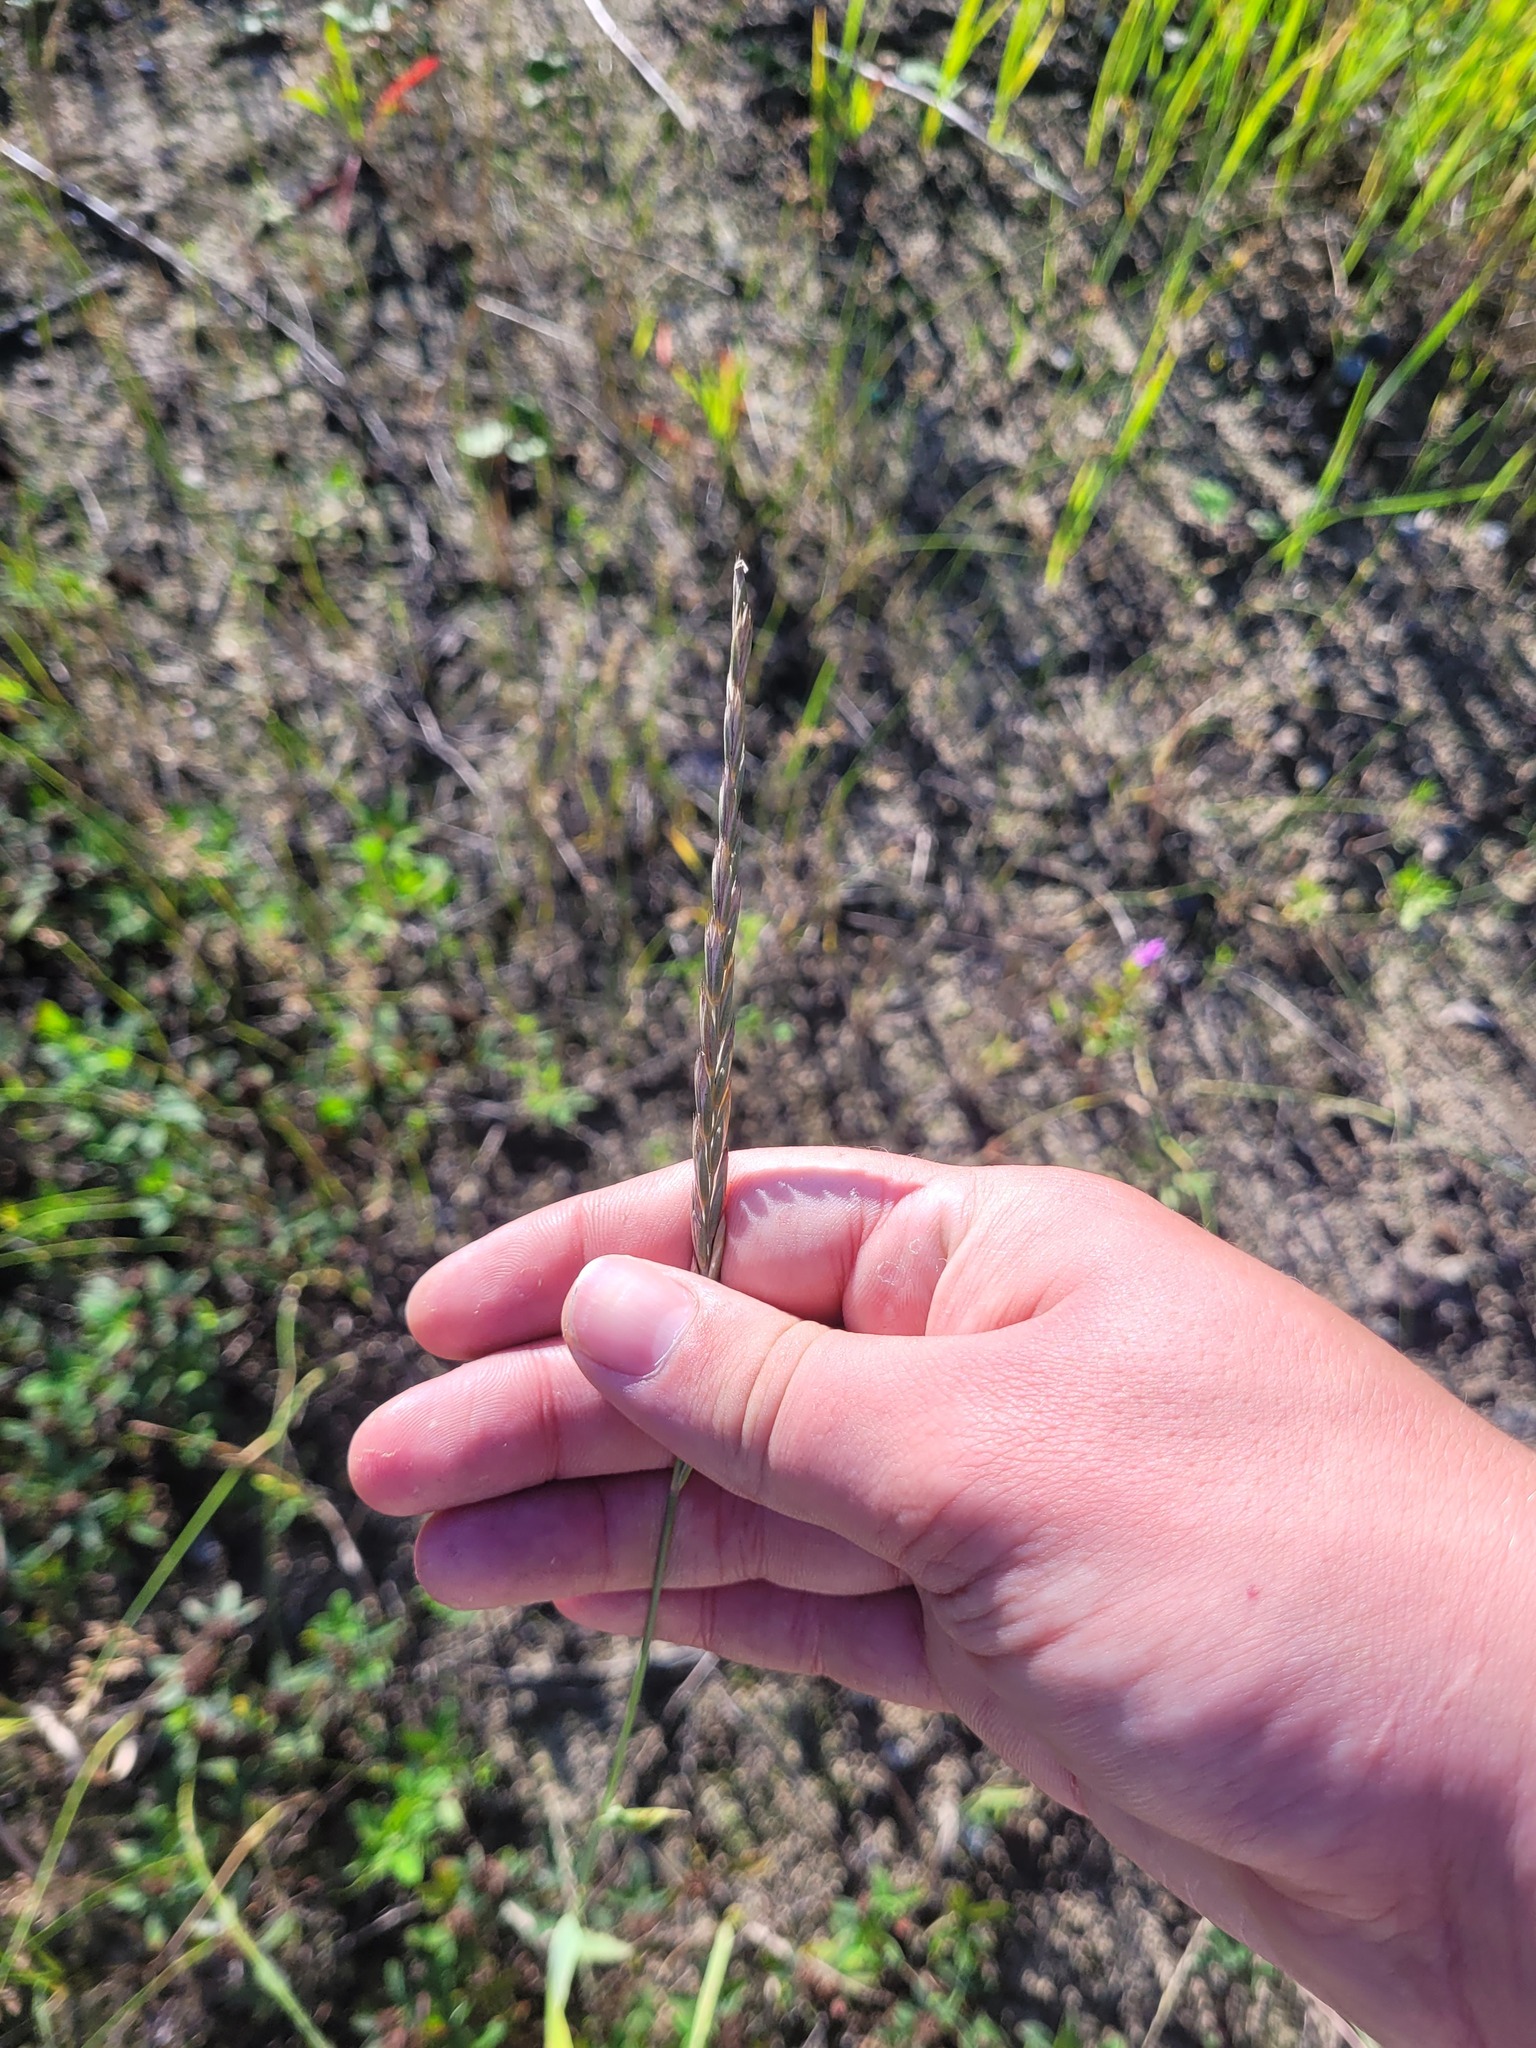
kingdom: Plantae
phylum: Tracheophyta
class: Liliopsida
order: Poales
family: Poaceae
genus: Elymus
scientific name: Elymus repens
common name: Quackgrass
